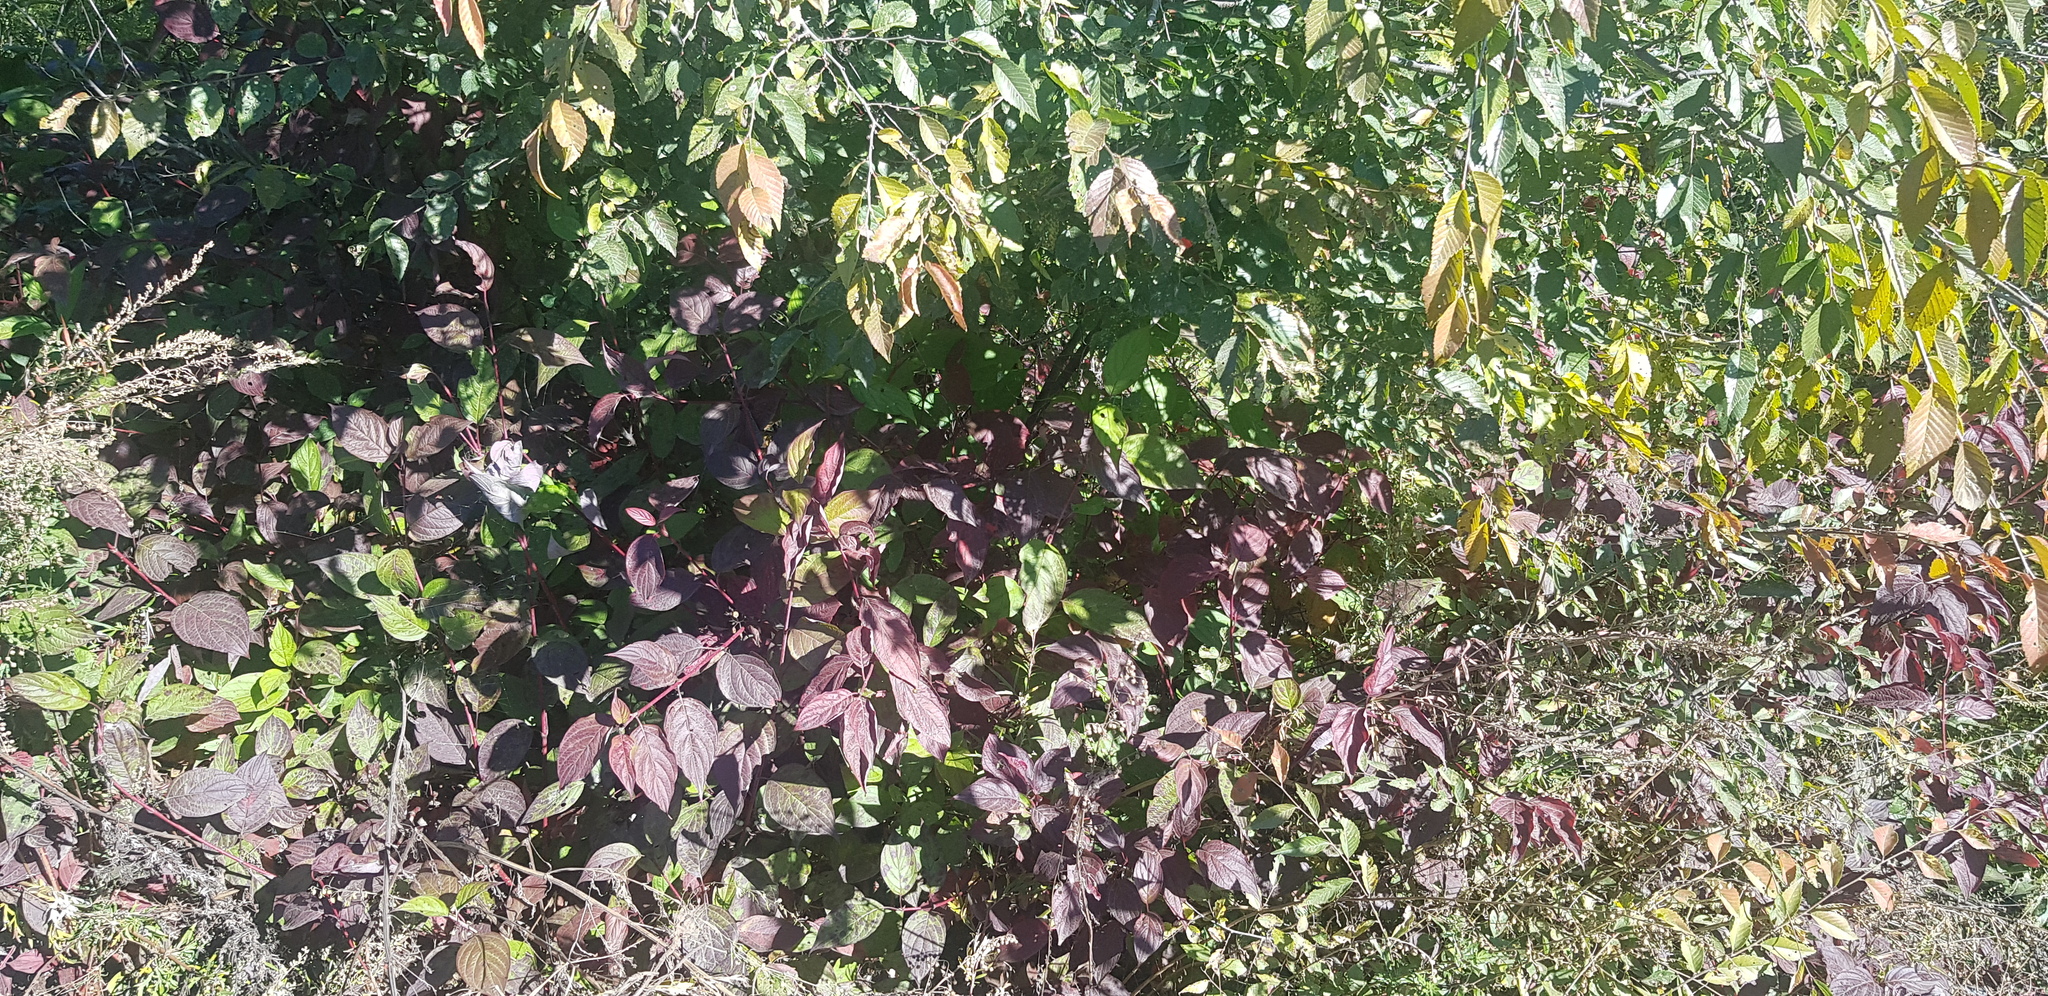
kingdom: Plantae
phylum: Tracheophyta
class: Magnoliopsida
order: Rosales
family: Ulmaceae
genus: Ulmus
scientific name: Ulmus pumila
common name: Siberian elm
